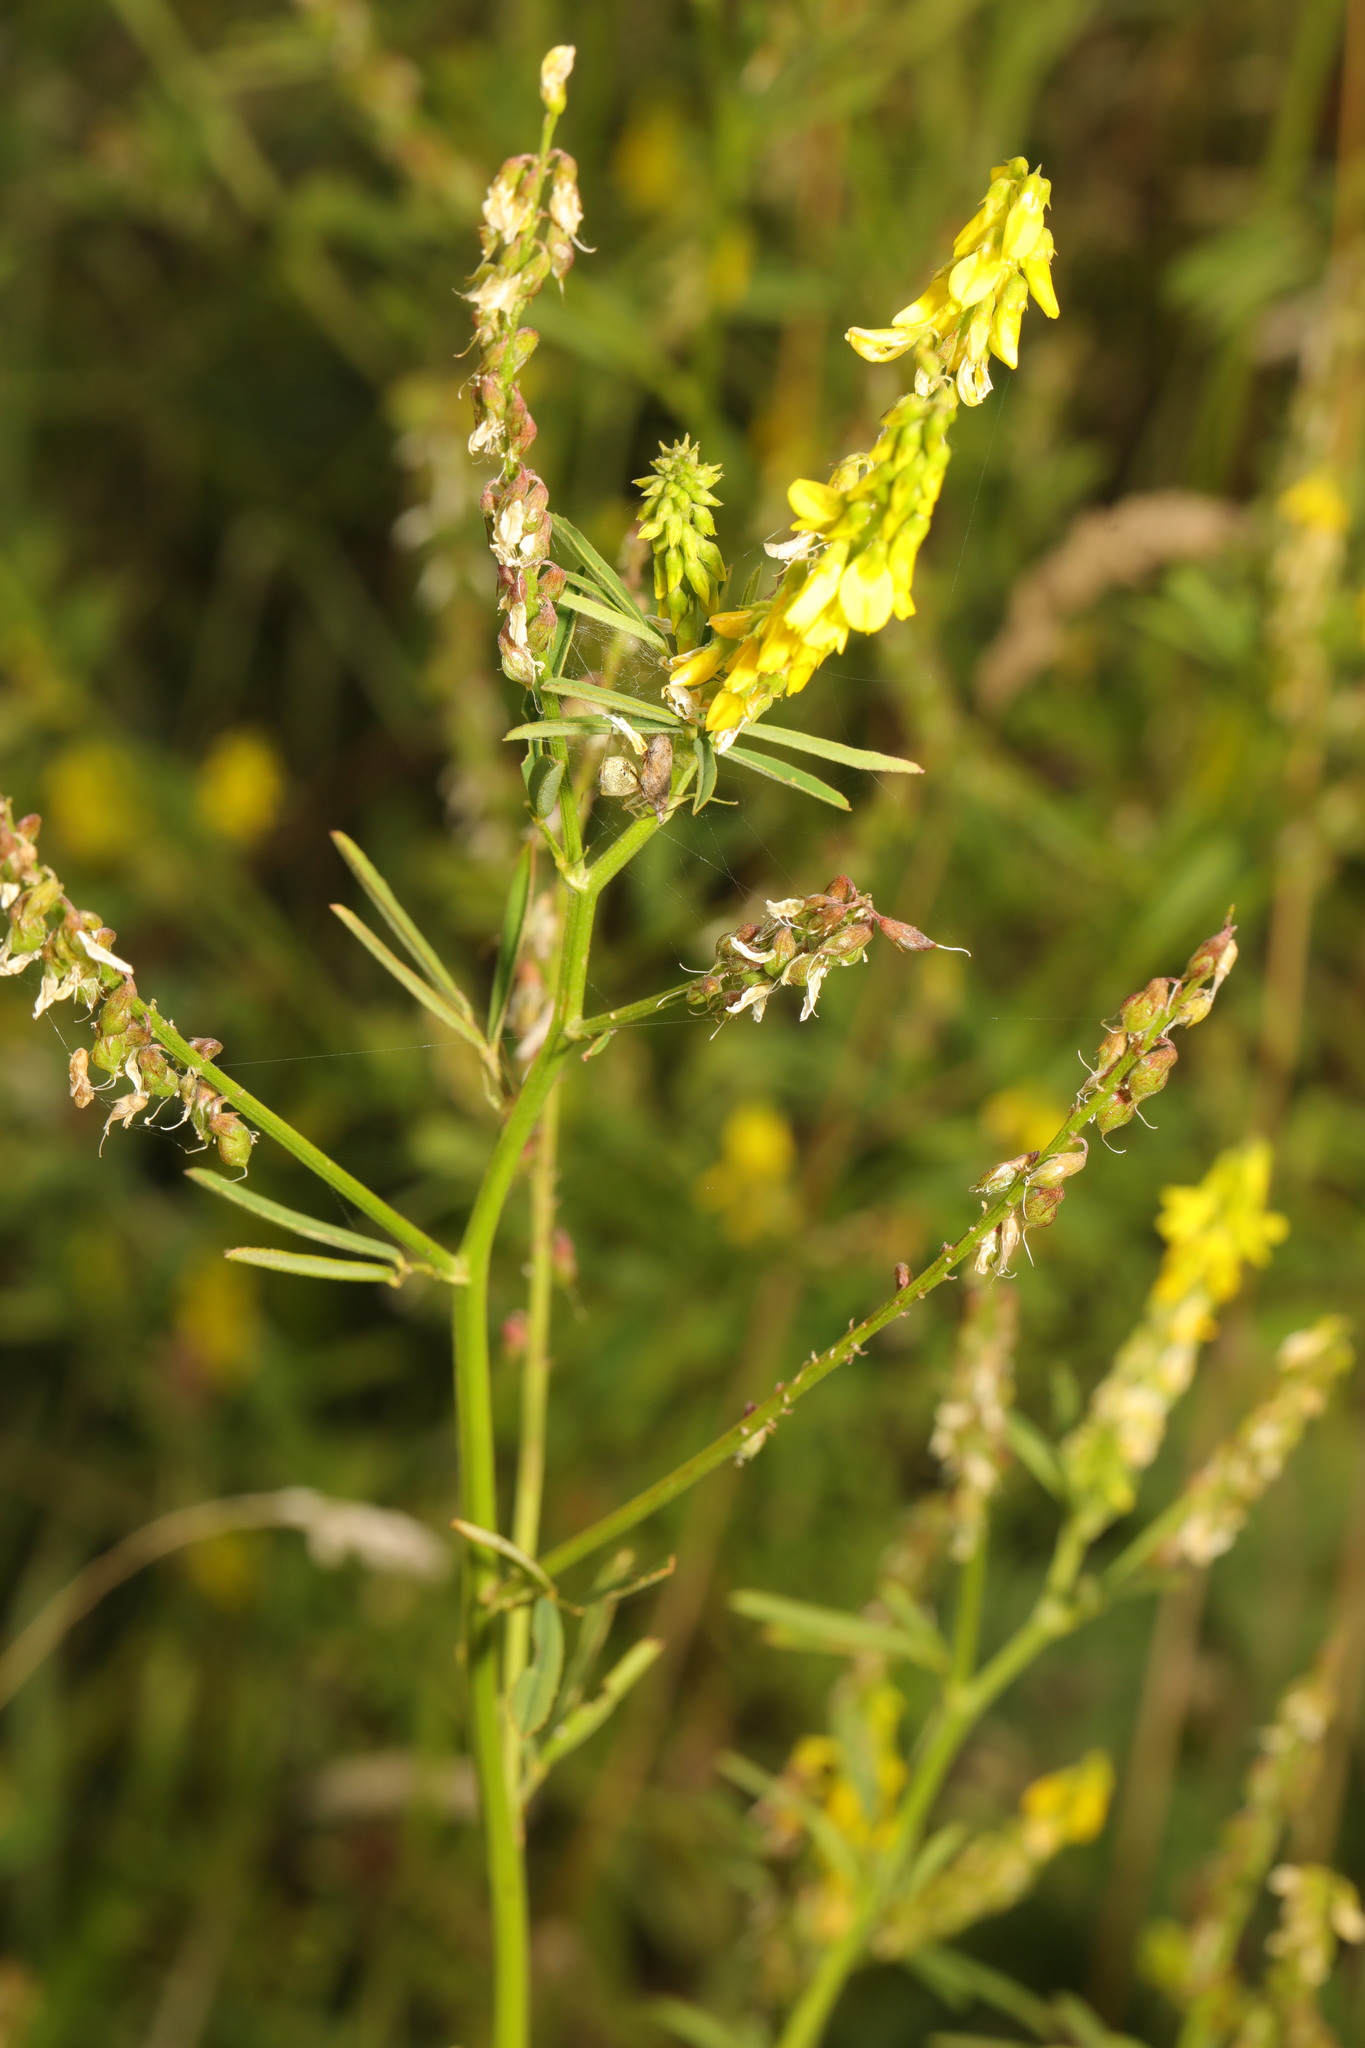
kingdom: Plantae
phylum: Tracheophyta
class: Magnoliopsida
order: Fabales
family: Fabaceae
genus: Melilotus
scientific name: Melilotus officinalis
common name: Sweetclover
